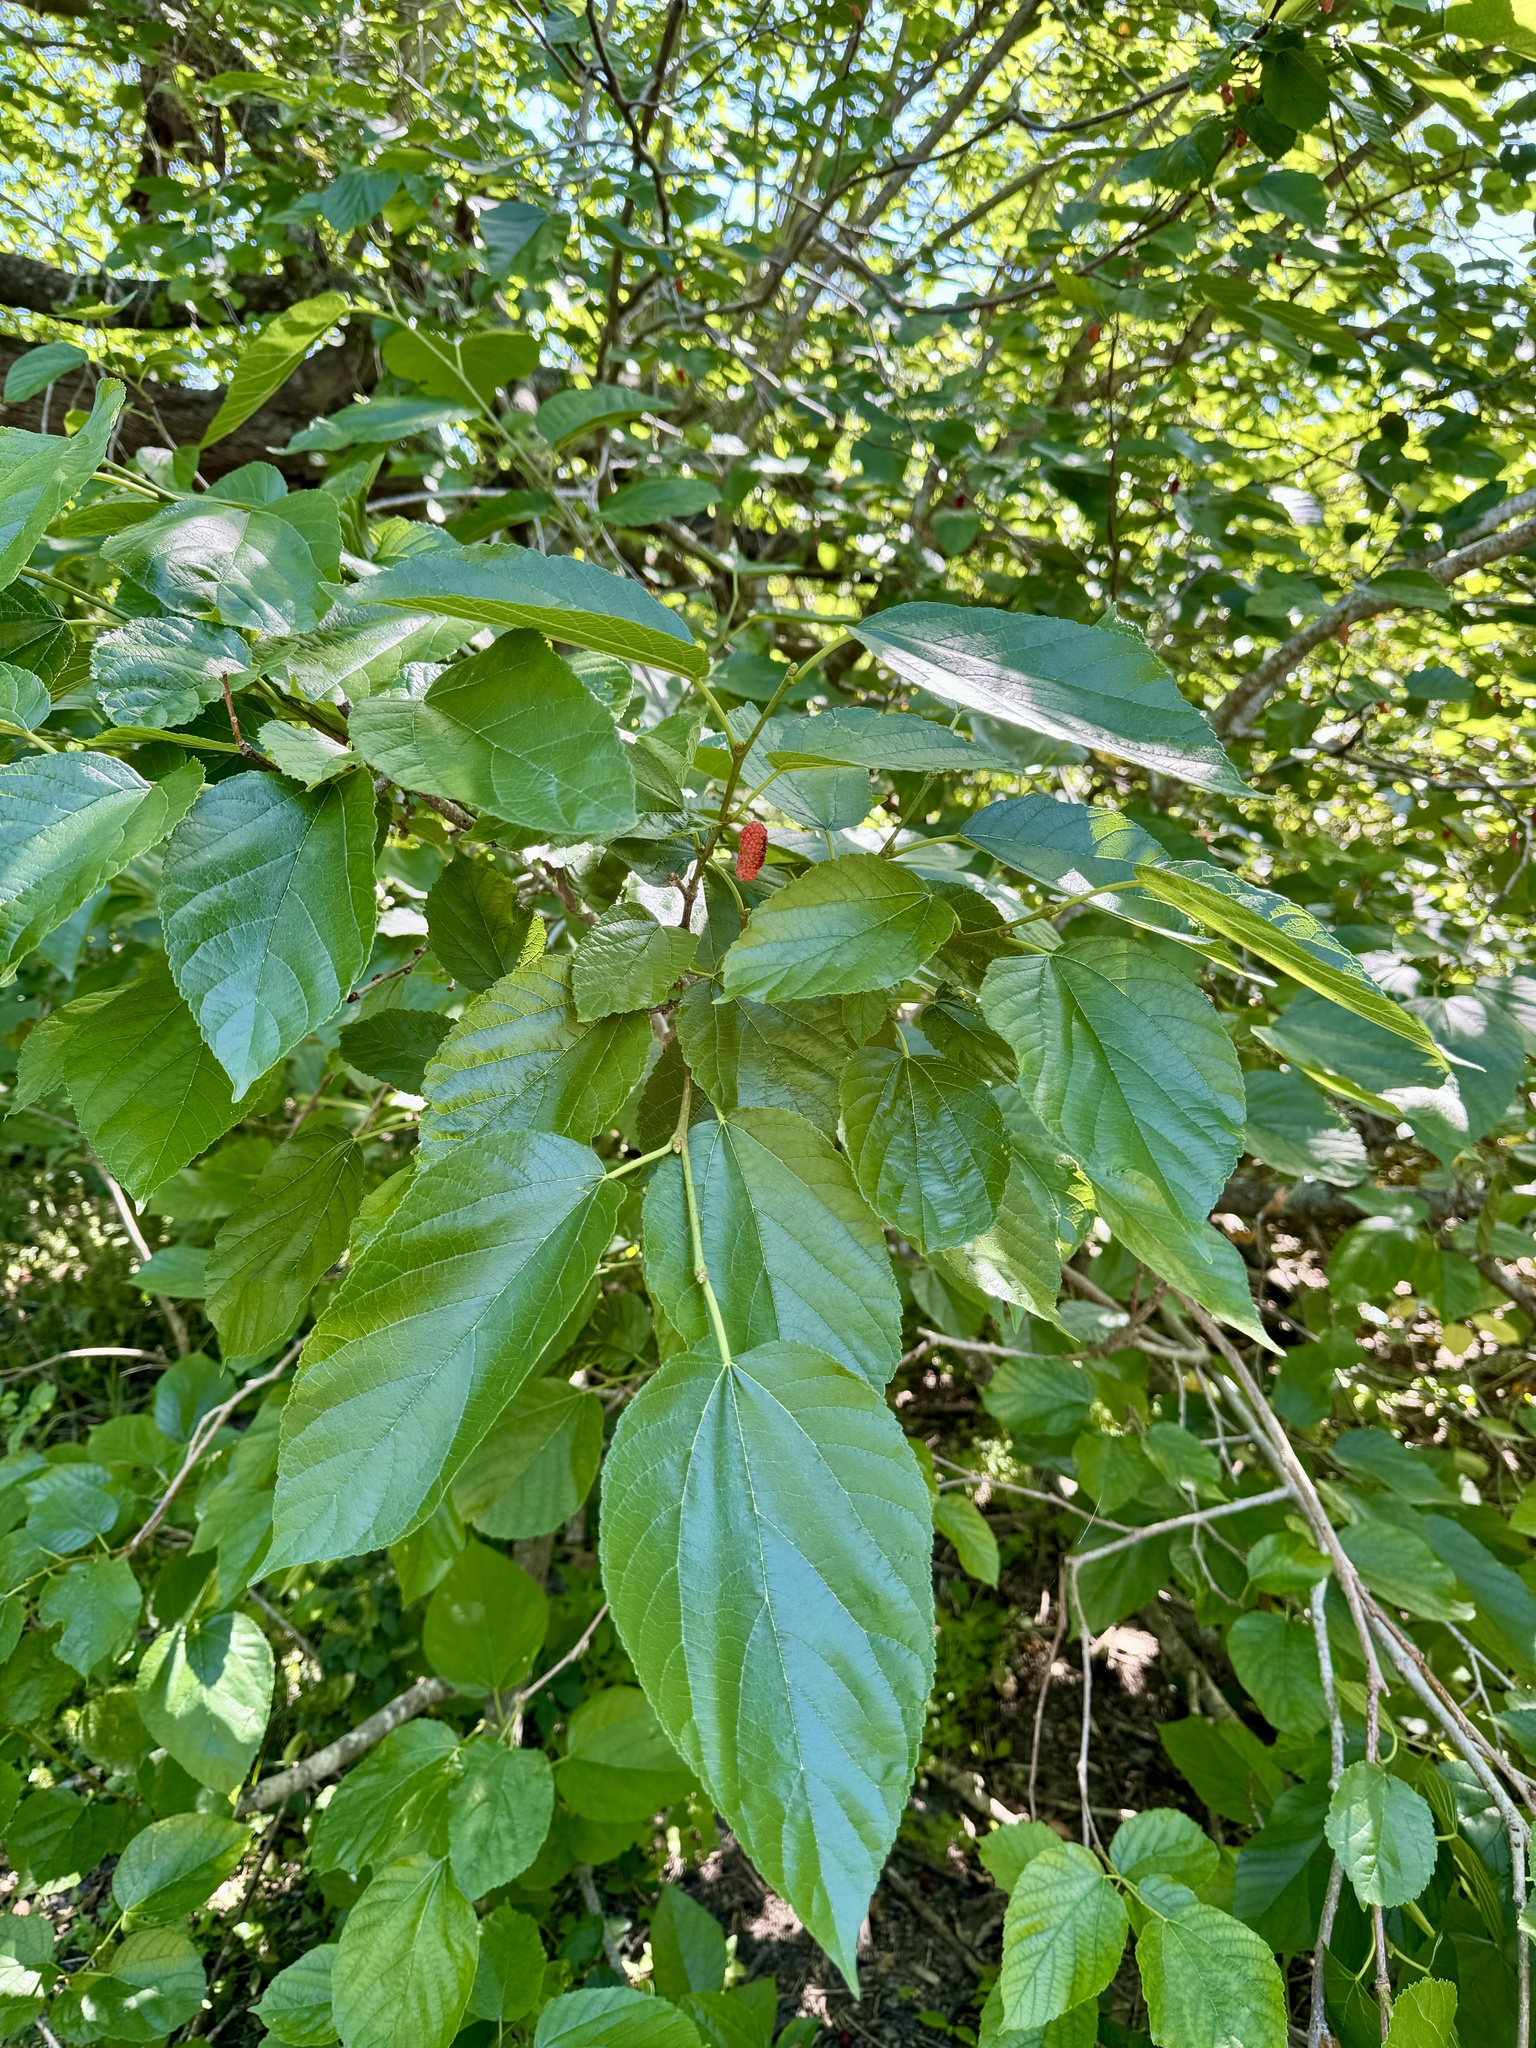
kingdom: Plantae
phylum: Tracheophyta
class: Magnoliopsida
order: Rosales
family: Moraceae
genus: Morus
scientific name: Morus rubra
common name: Red mulberry
